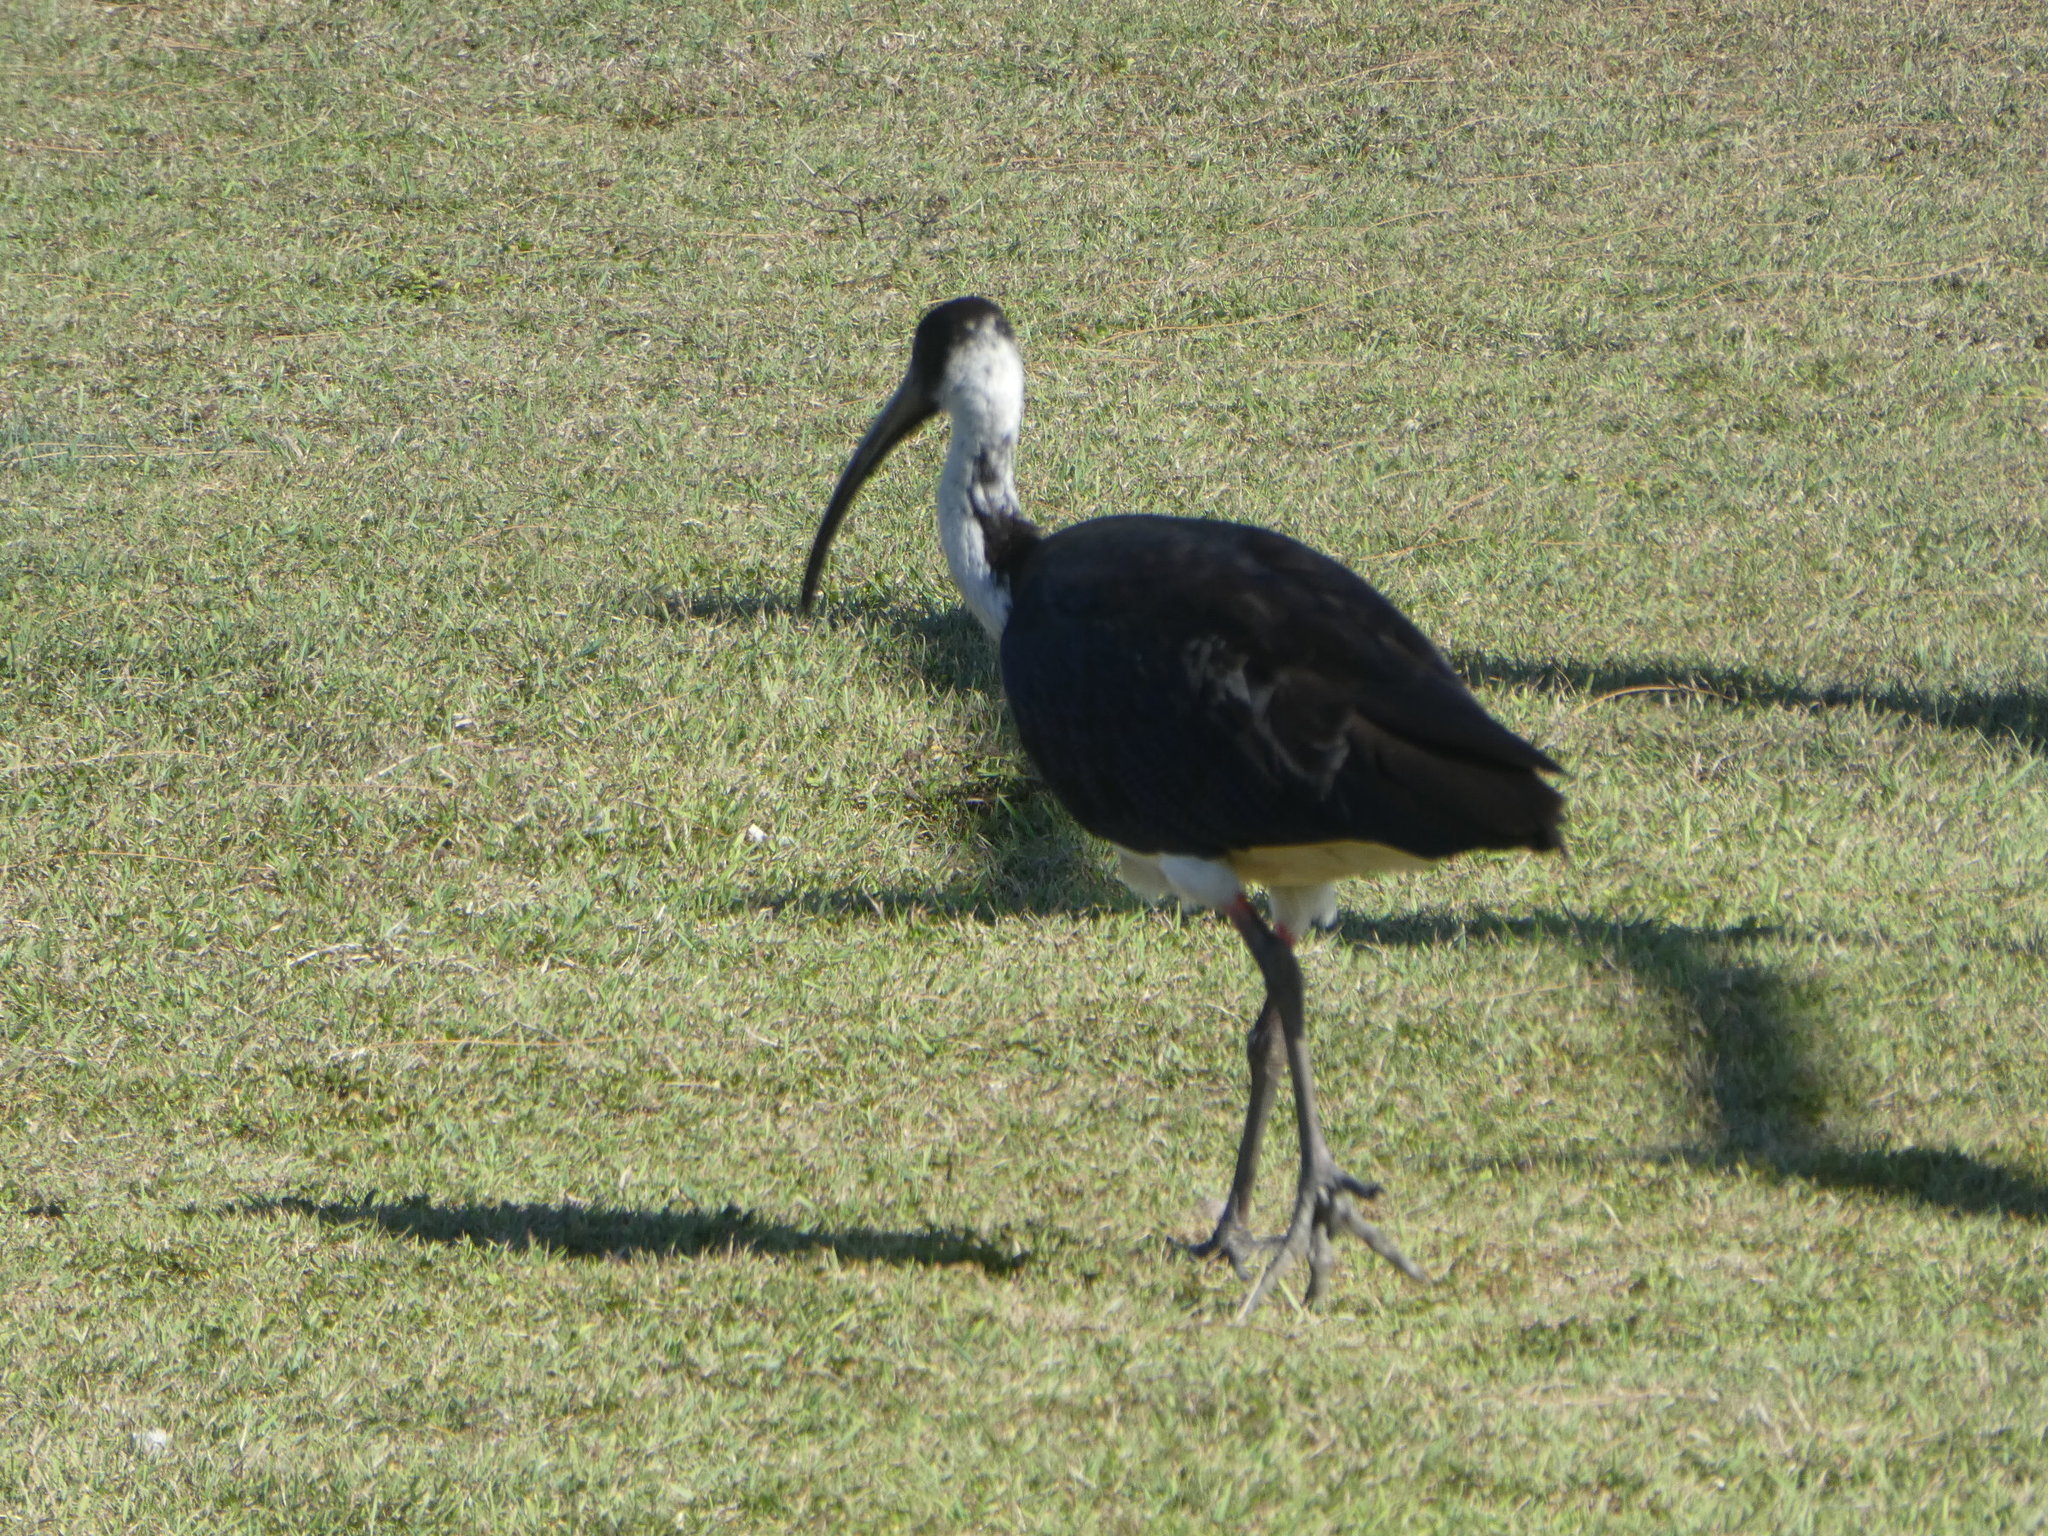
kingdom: Animalia
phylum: Chordata
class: Aves
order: Pelecaniformes
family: Threskiornithidae
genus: Threskiornis
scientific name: Threskiornis spinicollis
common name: Straw-necked ibis
